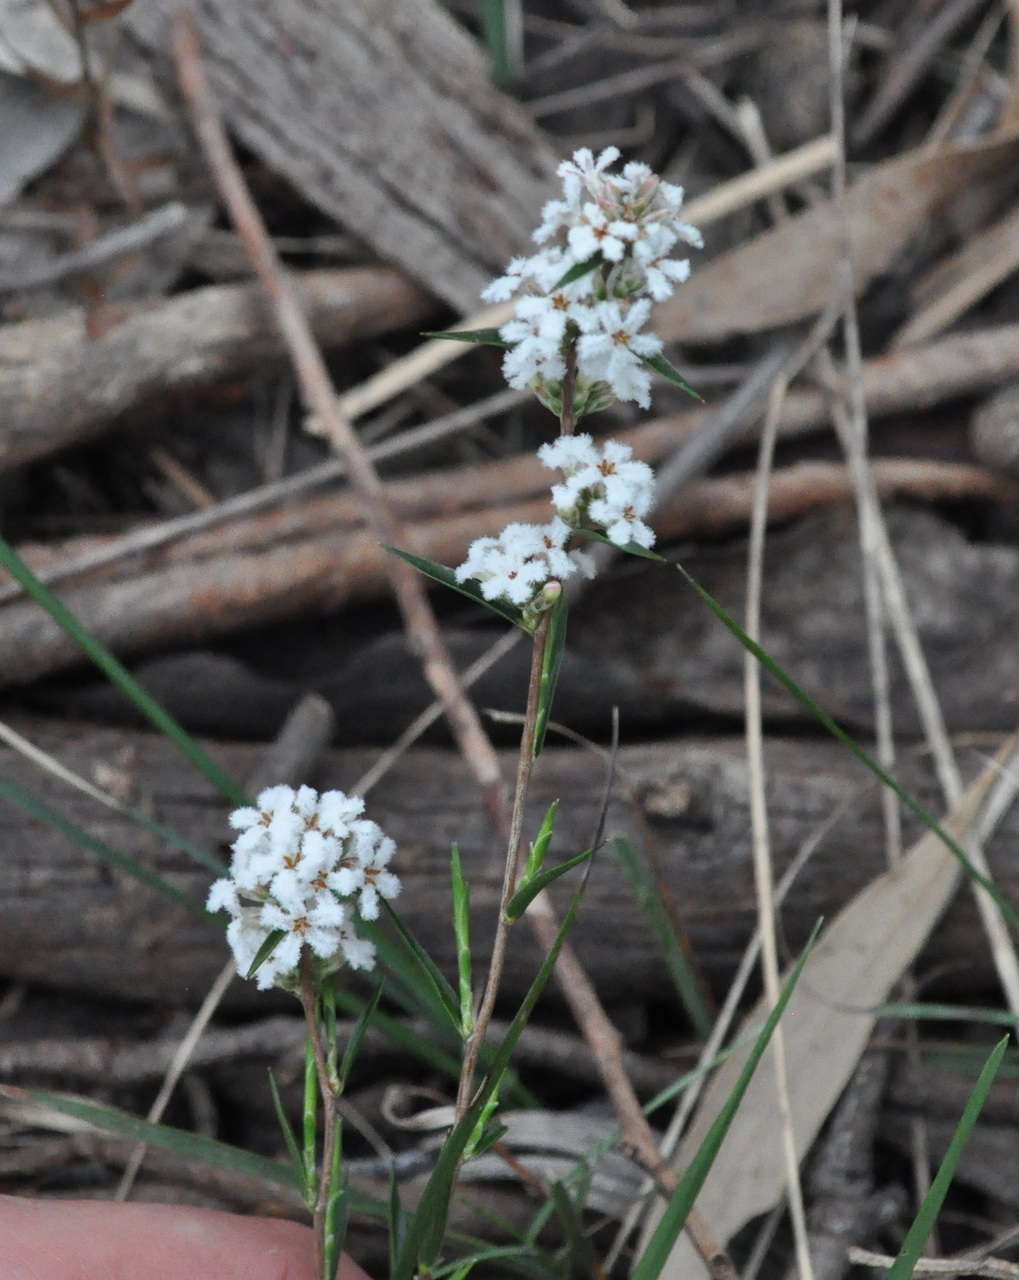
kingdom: Plantae
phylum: Tracheophyta
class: Magnoliopsida
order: Ericales
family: Ericaceae
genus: Leucopogon
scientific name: Leucopogon virgatus
